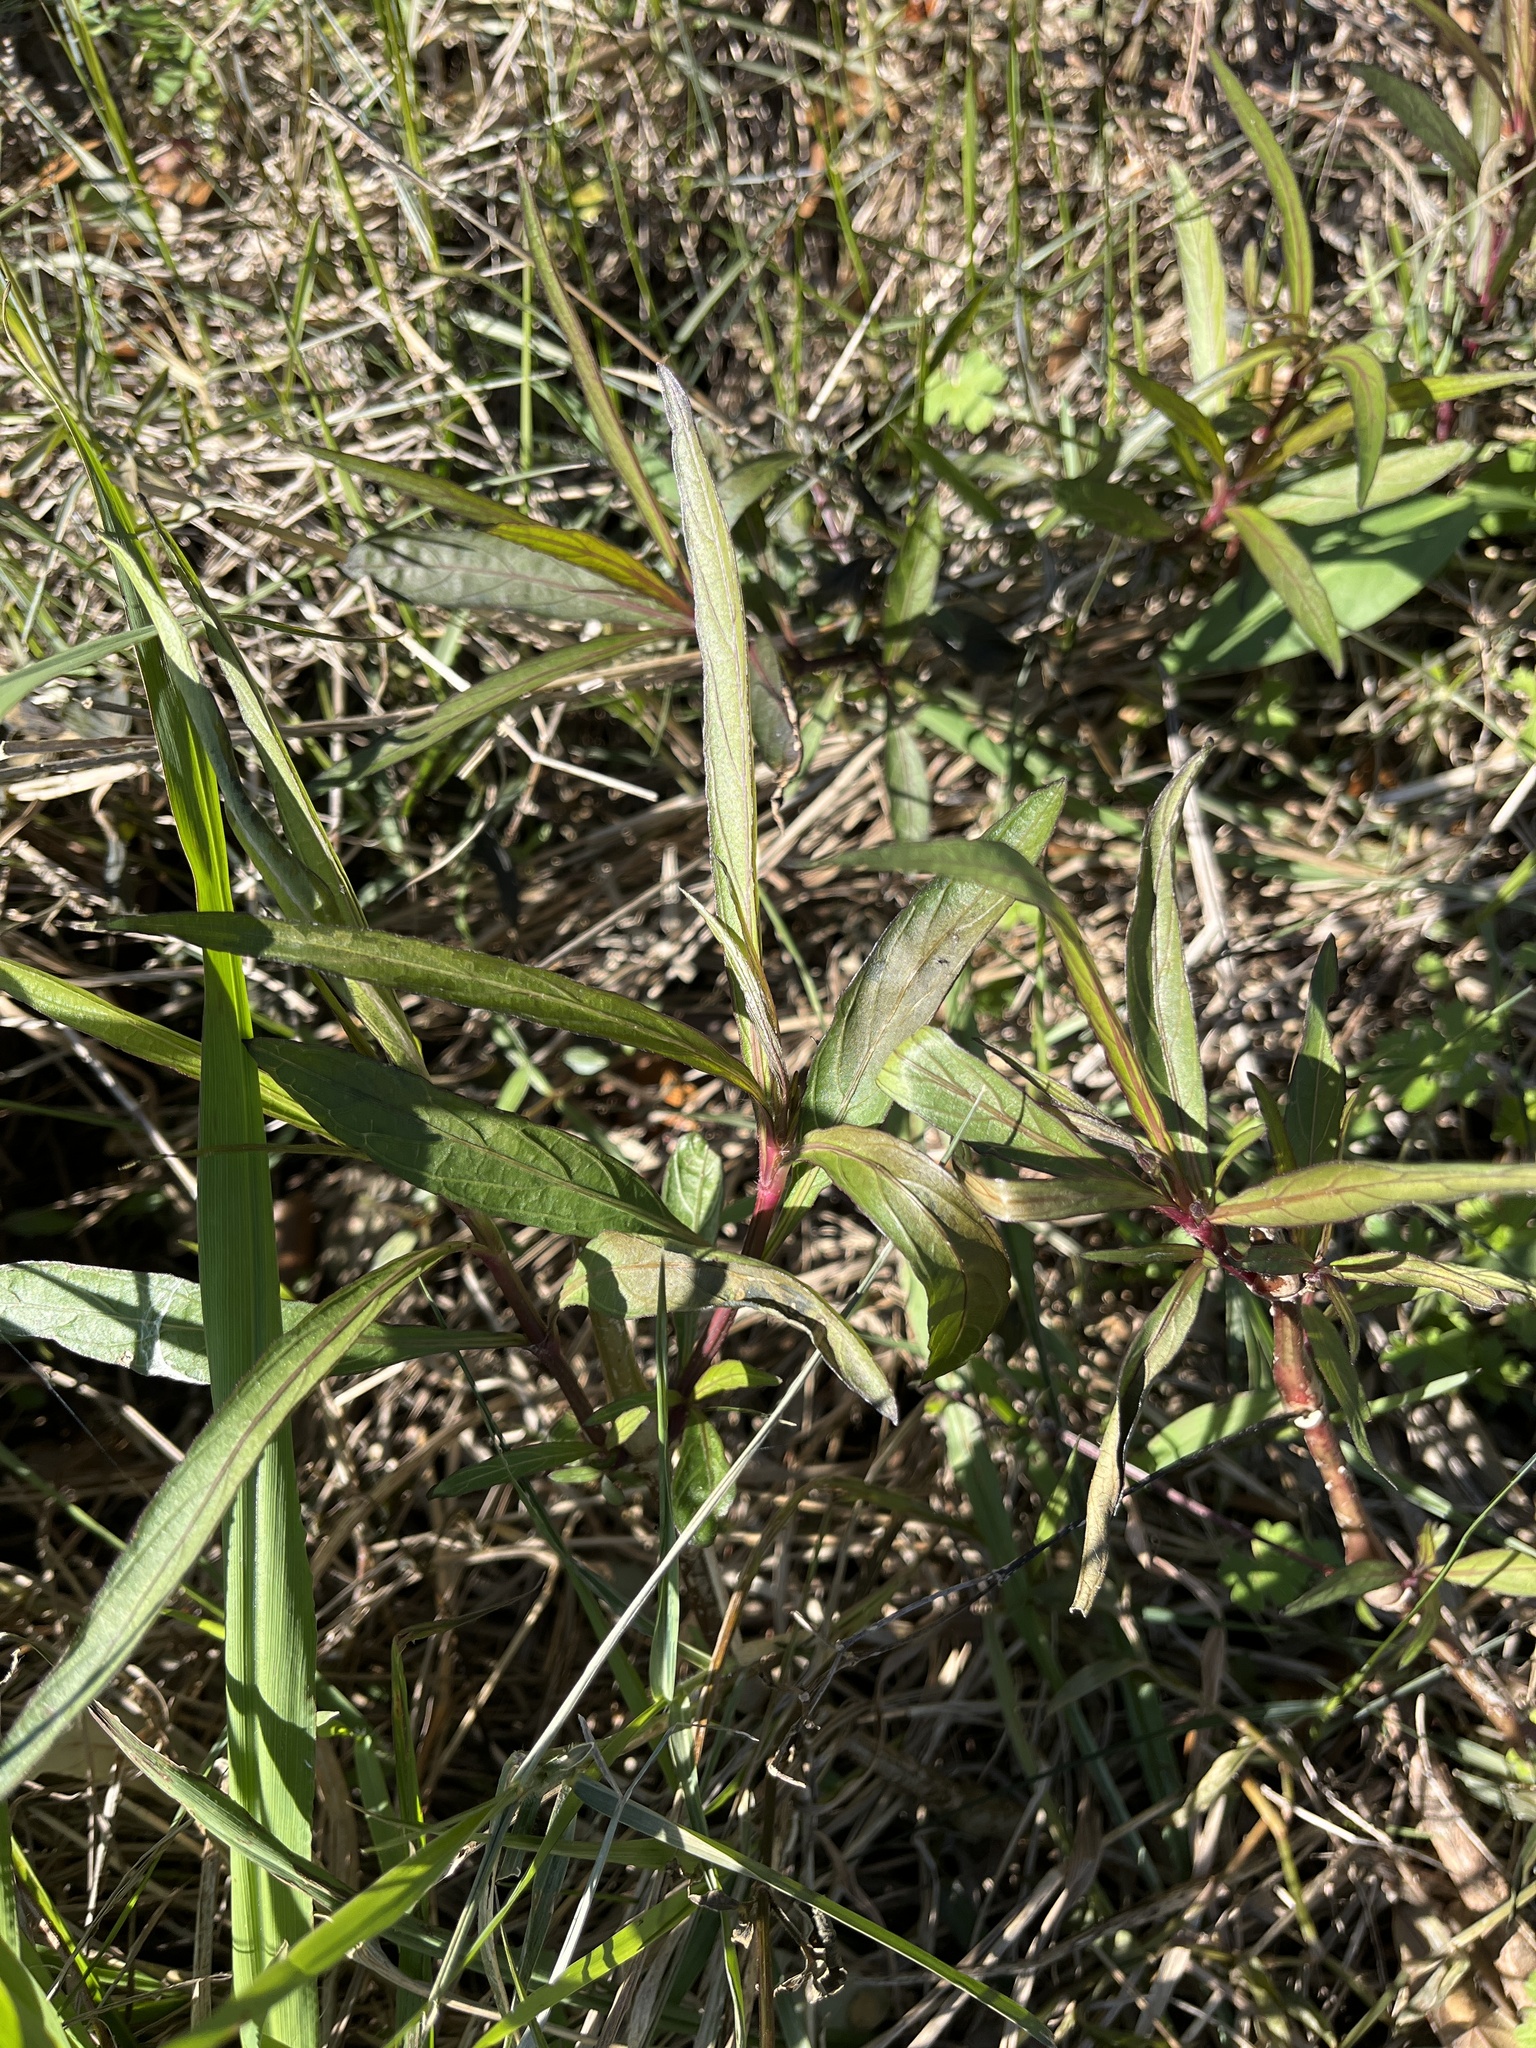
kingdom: Plantae
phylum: Tracheophyta
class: Magnoliopsida
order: Myrtales
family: Onagraceae
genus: Ludwigia
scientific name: Ludwigia octovalvis
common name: Water-primrose
